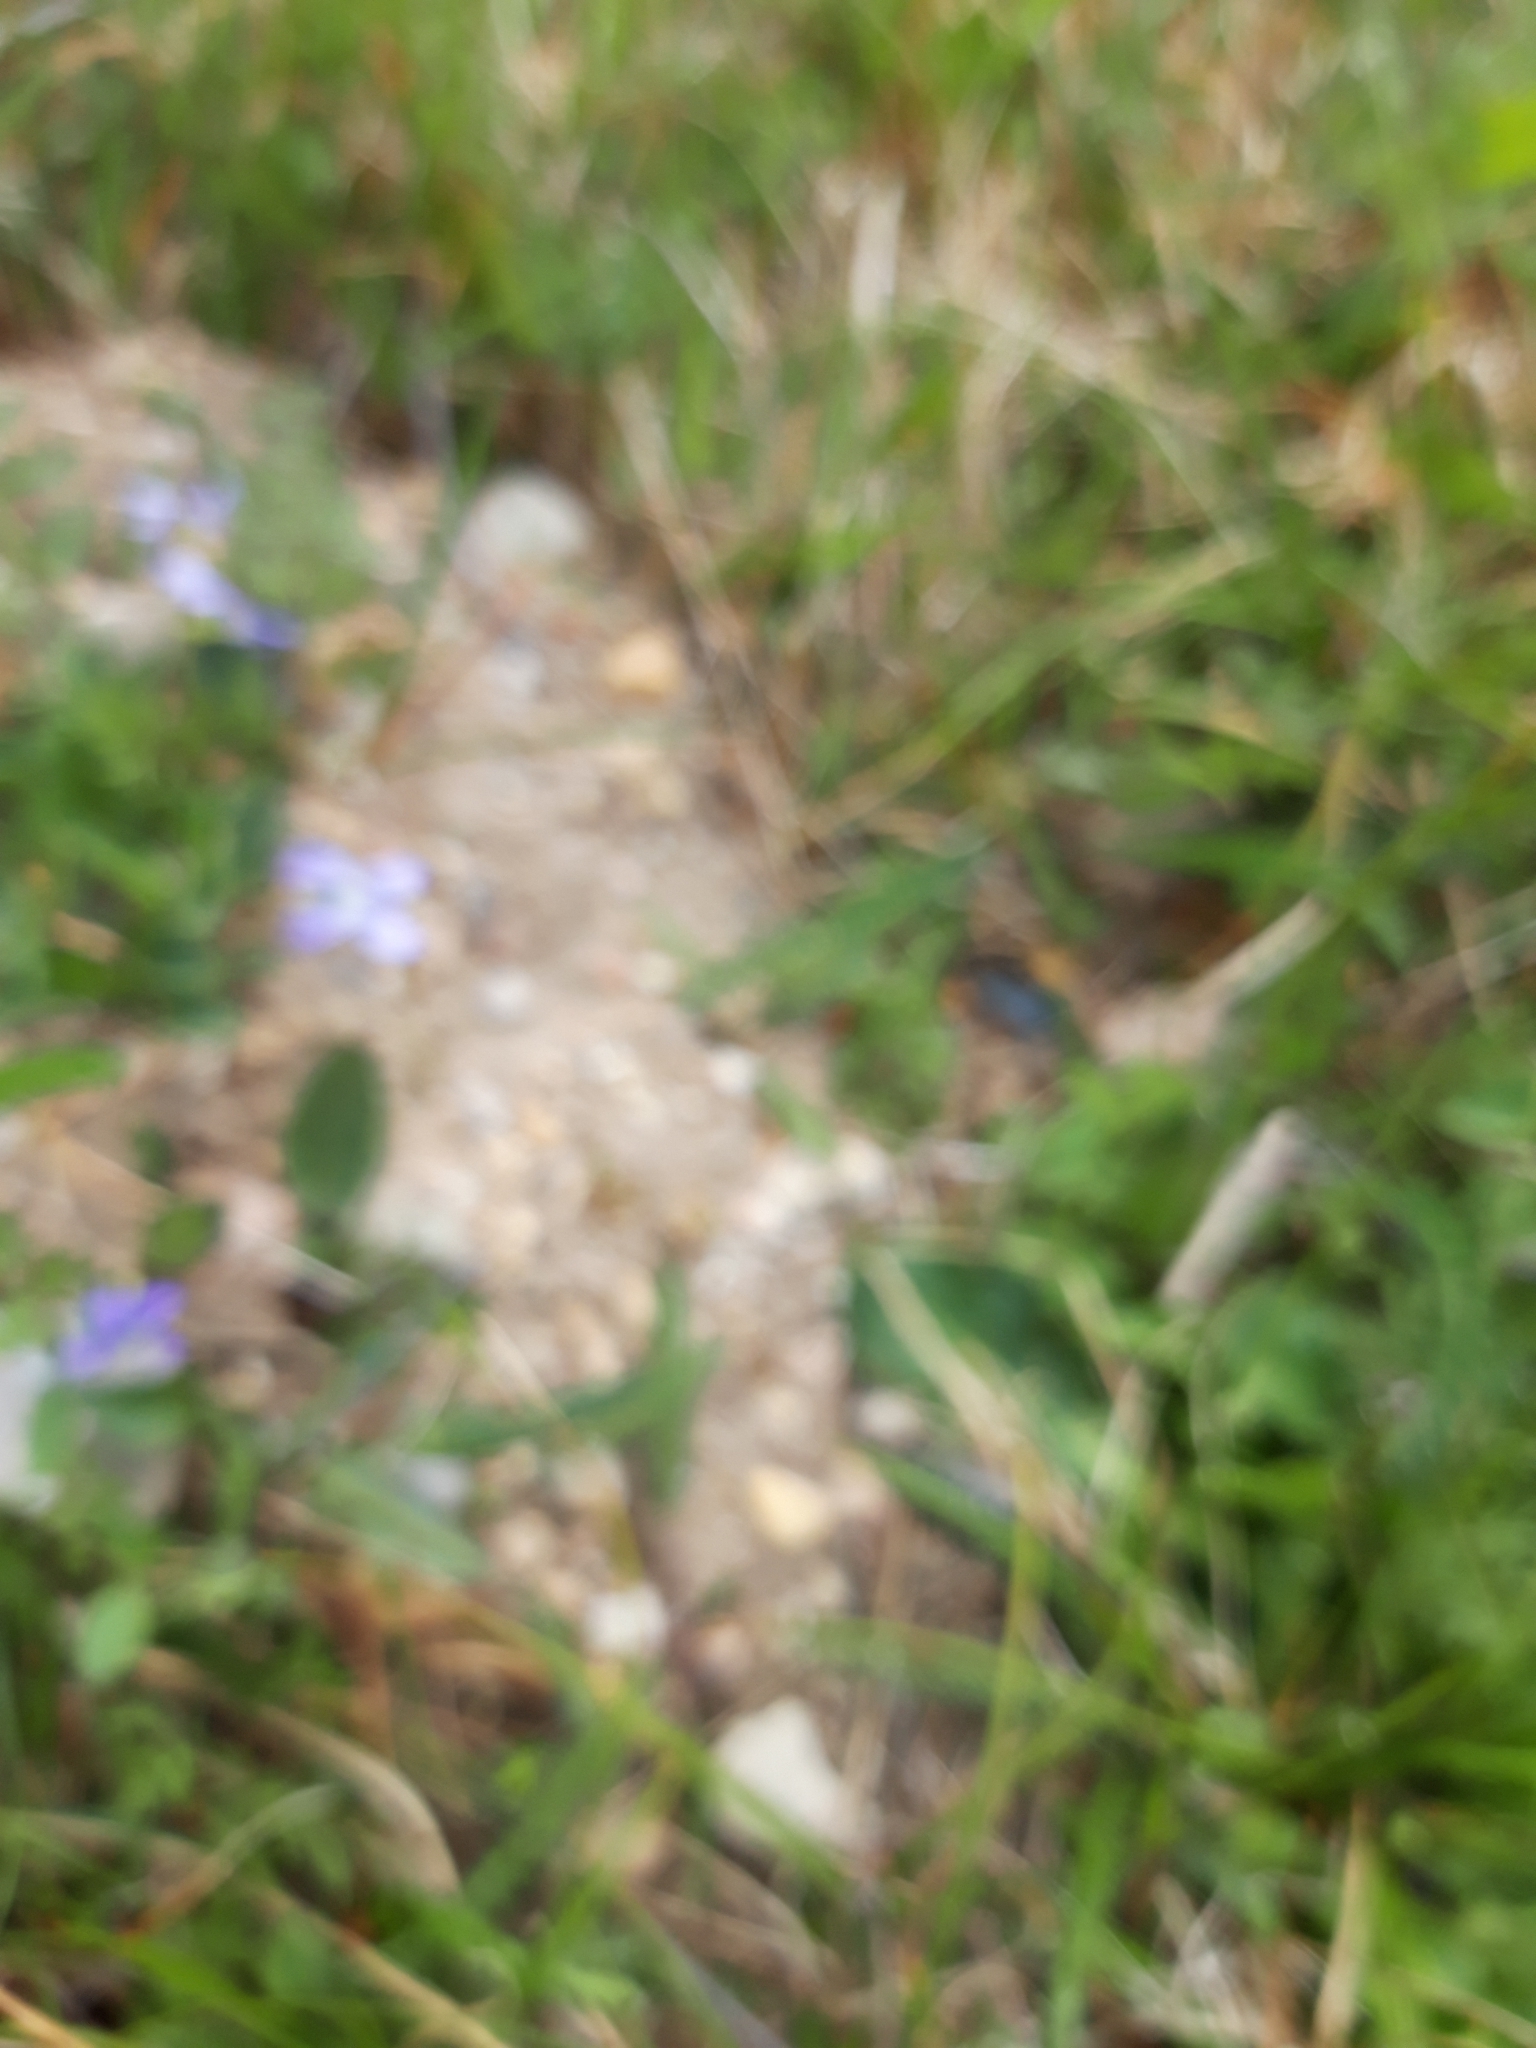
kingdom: Plantae
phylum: Tracheophyta
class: Magnoliopsida
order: Malpighiales
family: Violaceae
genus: Viola
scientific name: Viola canina
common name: Heath dog-violet
